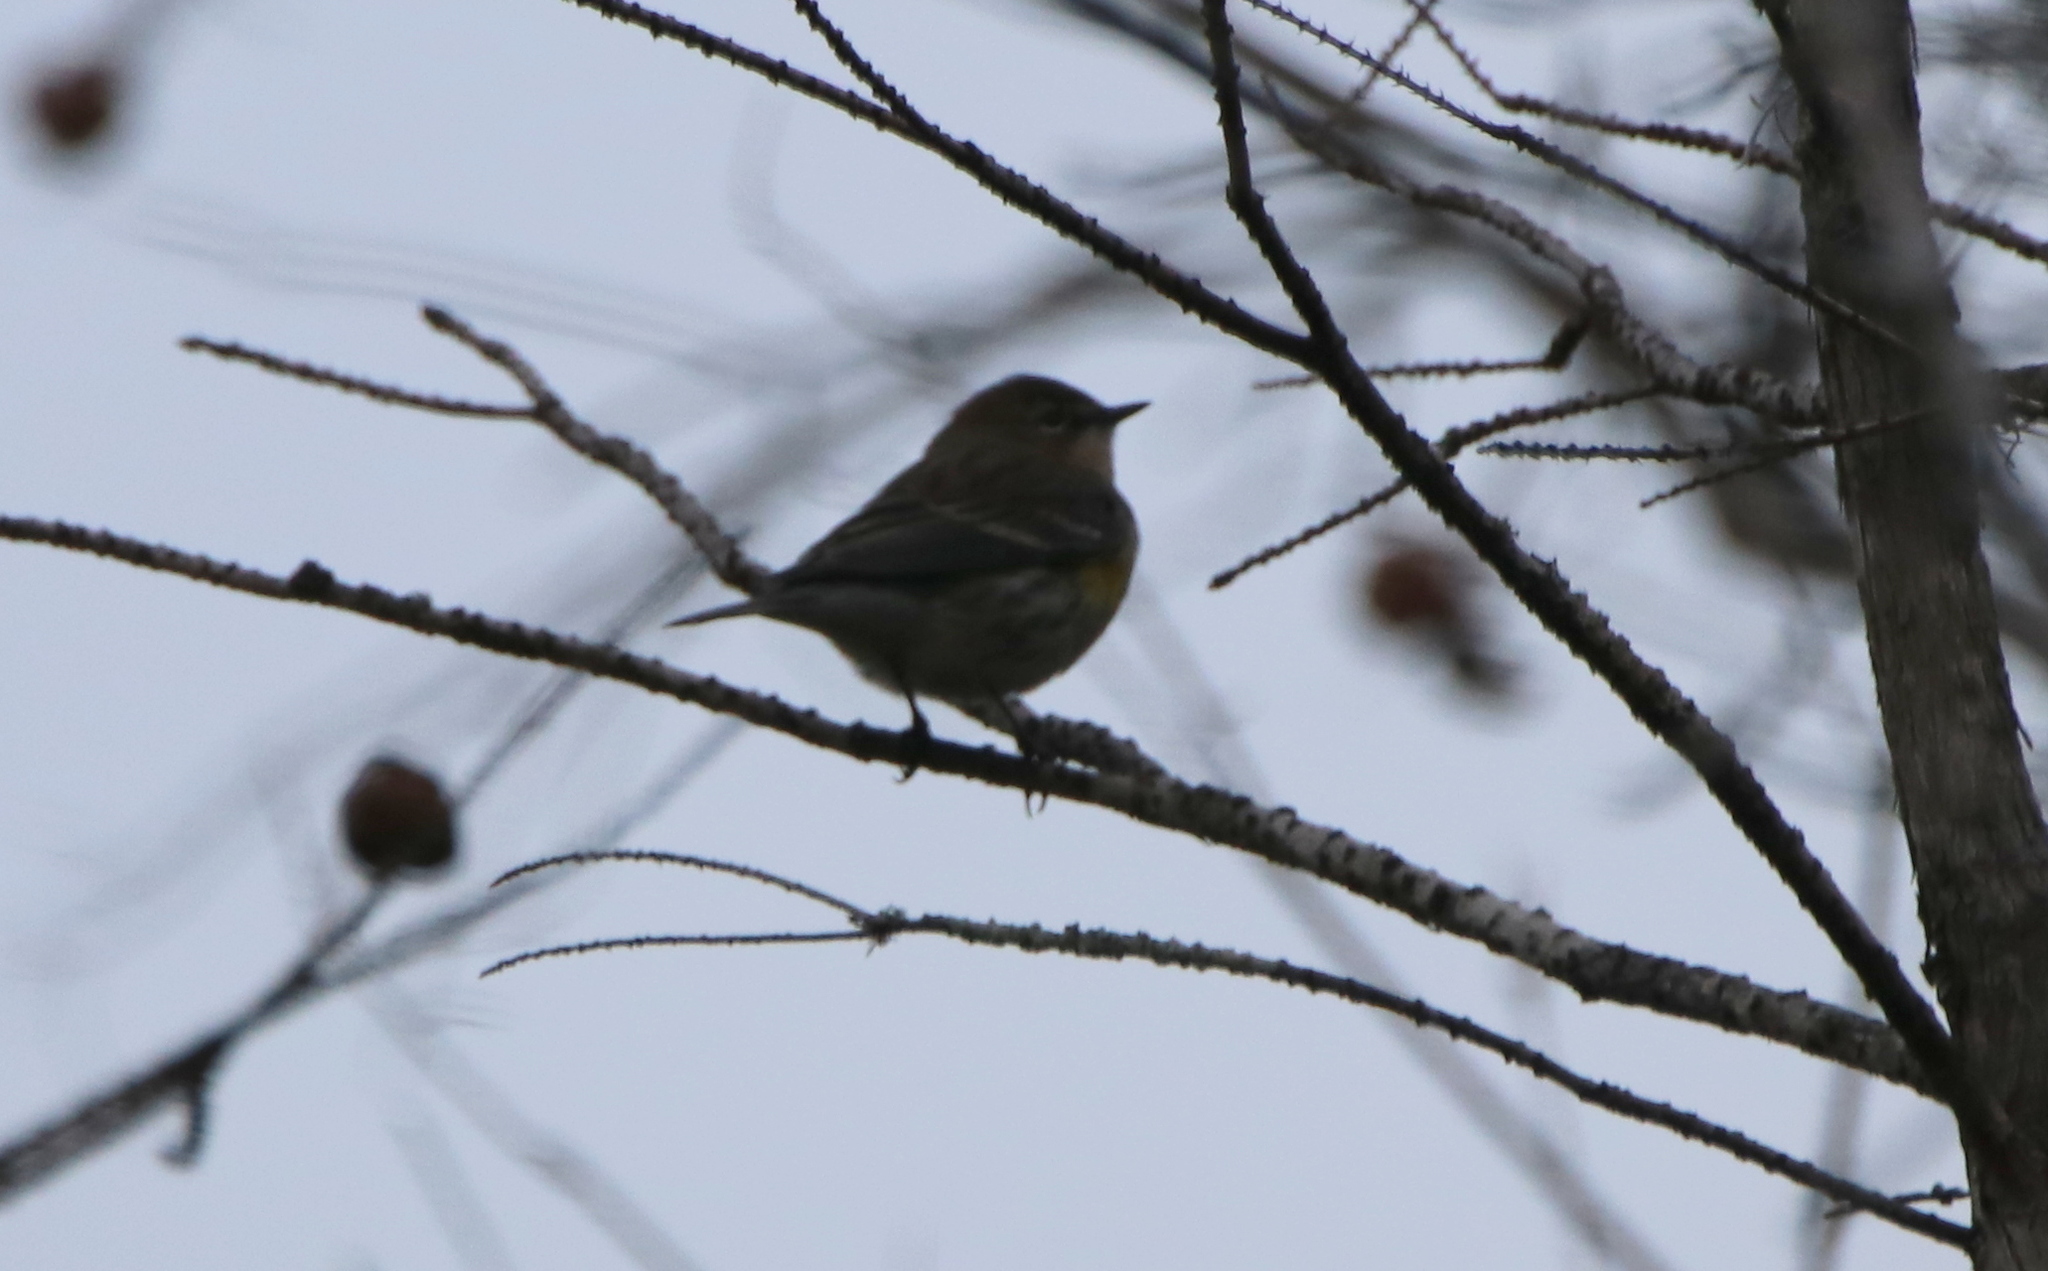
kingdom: Animalia
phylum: Chordata
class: Aves
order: Passeriformes
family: Parulidae
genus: Setophaga
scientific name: Setophaga coronata
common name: Myrtle warbler
